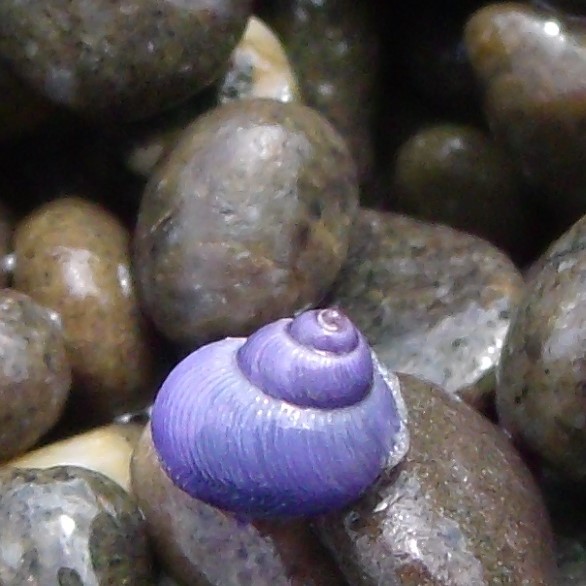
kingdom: Animalia
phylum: Mollusca
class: Gastropoda
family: Epitoniidae
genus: Janthina
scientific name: Janthina exigua
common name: Dwarf janthina
